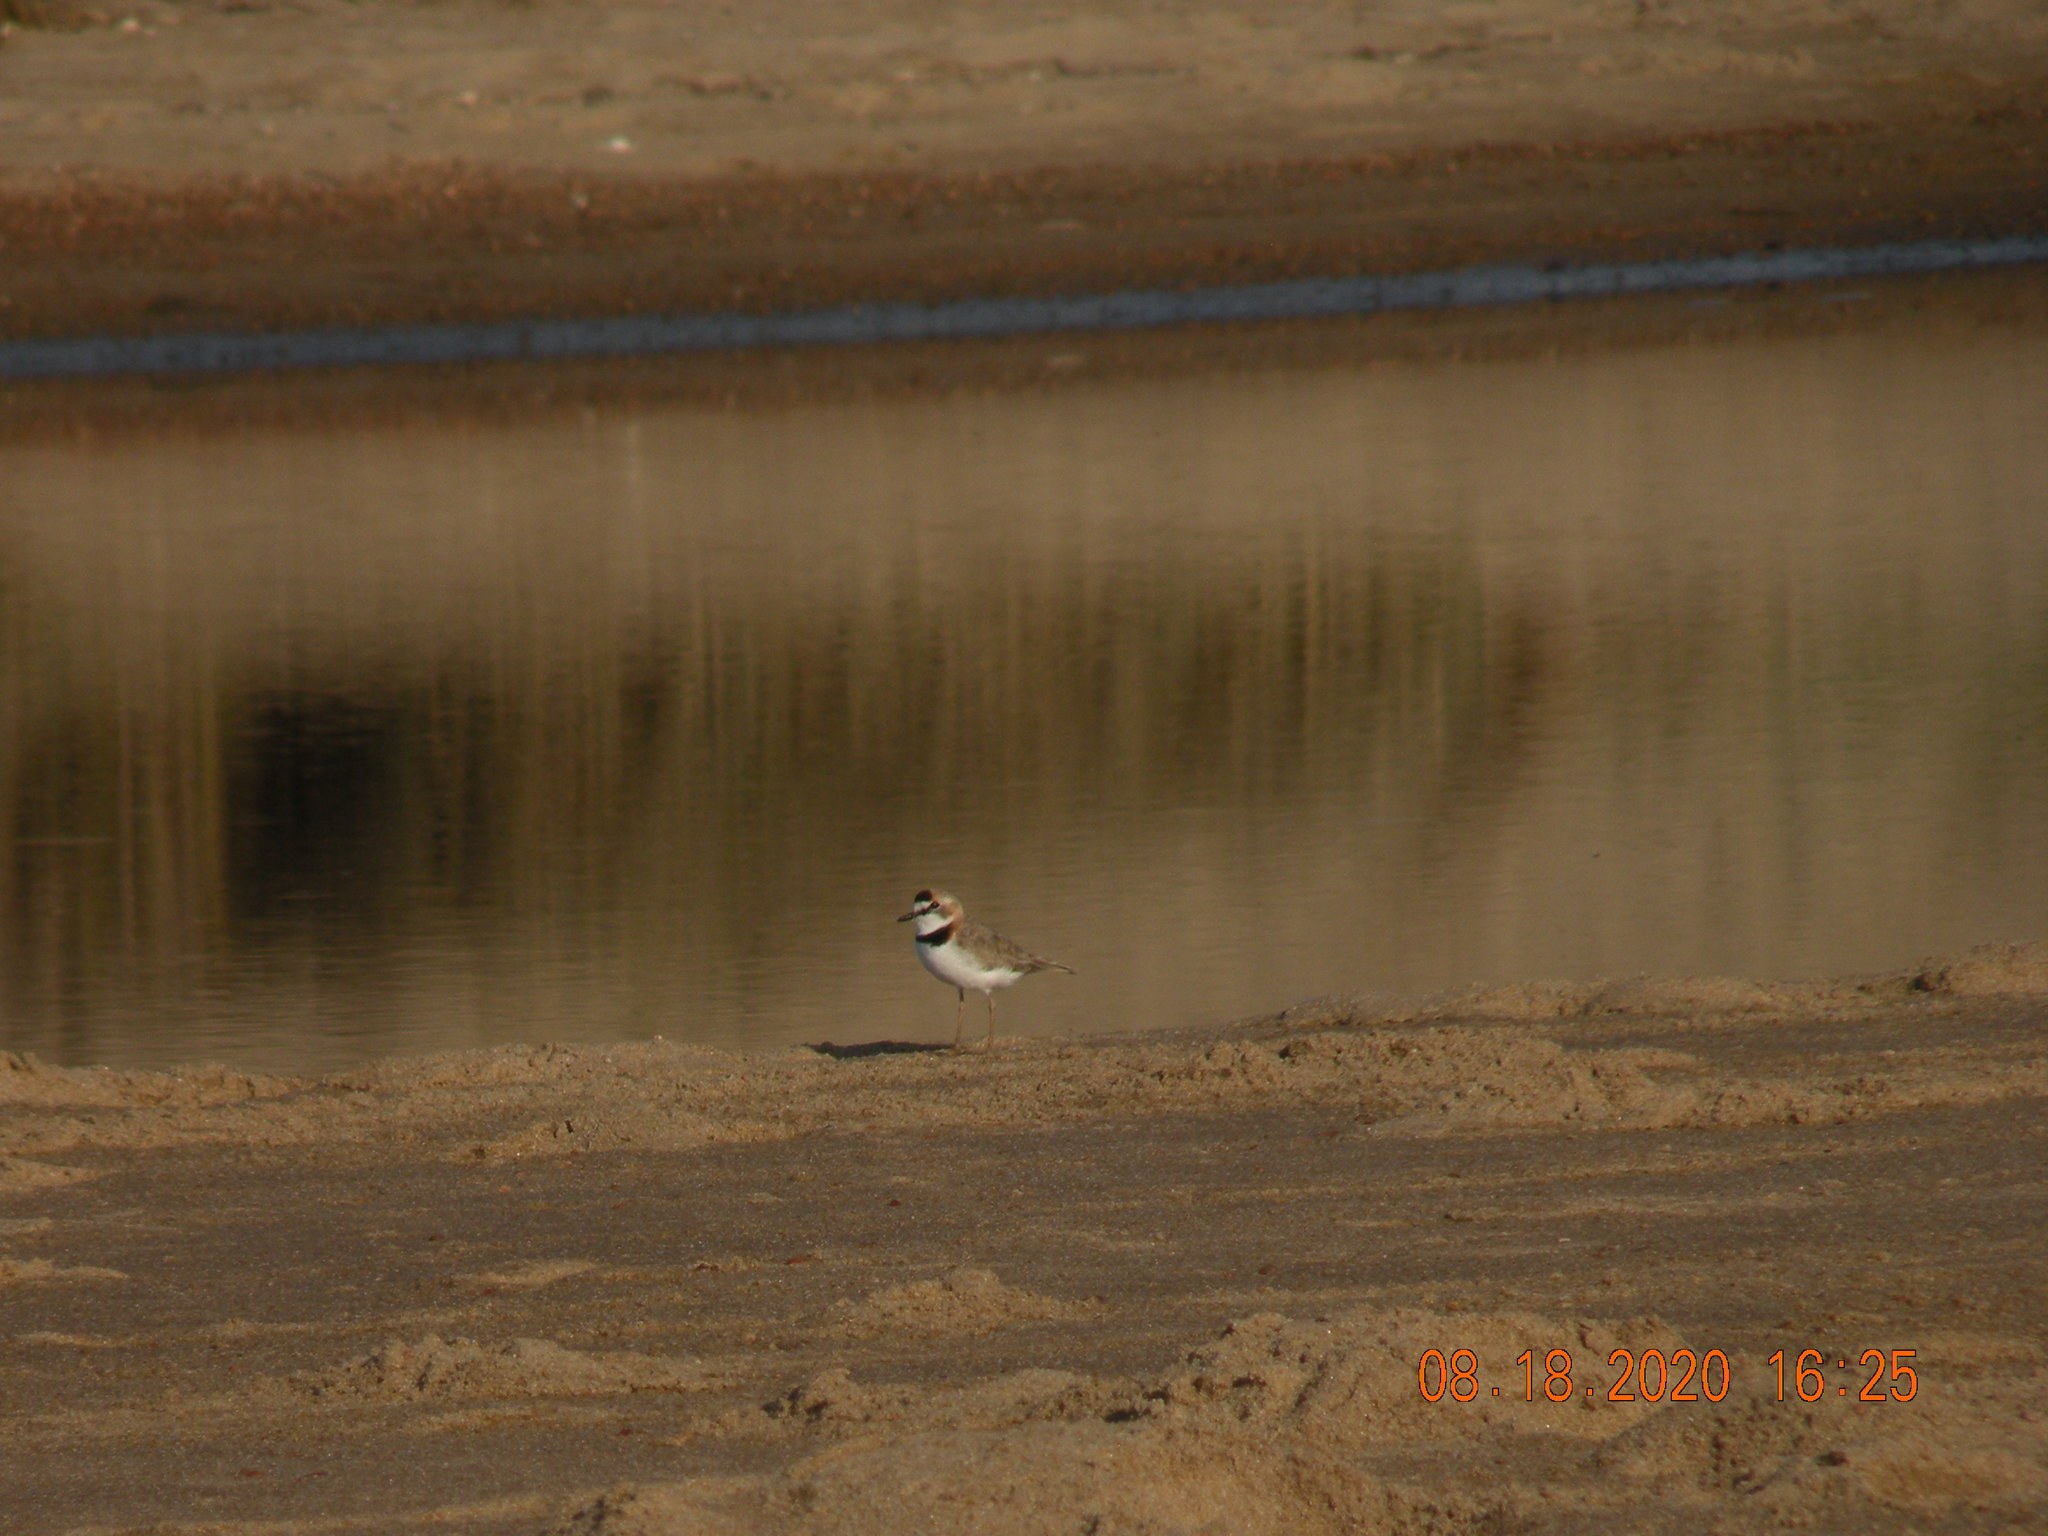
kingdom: Animalia
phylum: Chordata
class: Aves
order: Charadriiformes
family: Charadriidae
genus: Anarhynchus
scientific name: Anarhynchus
